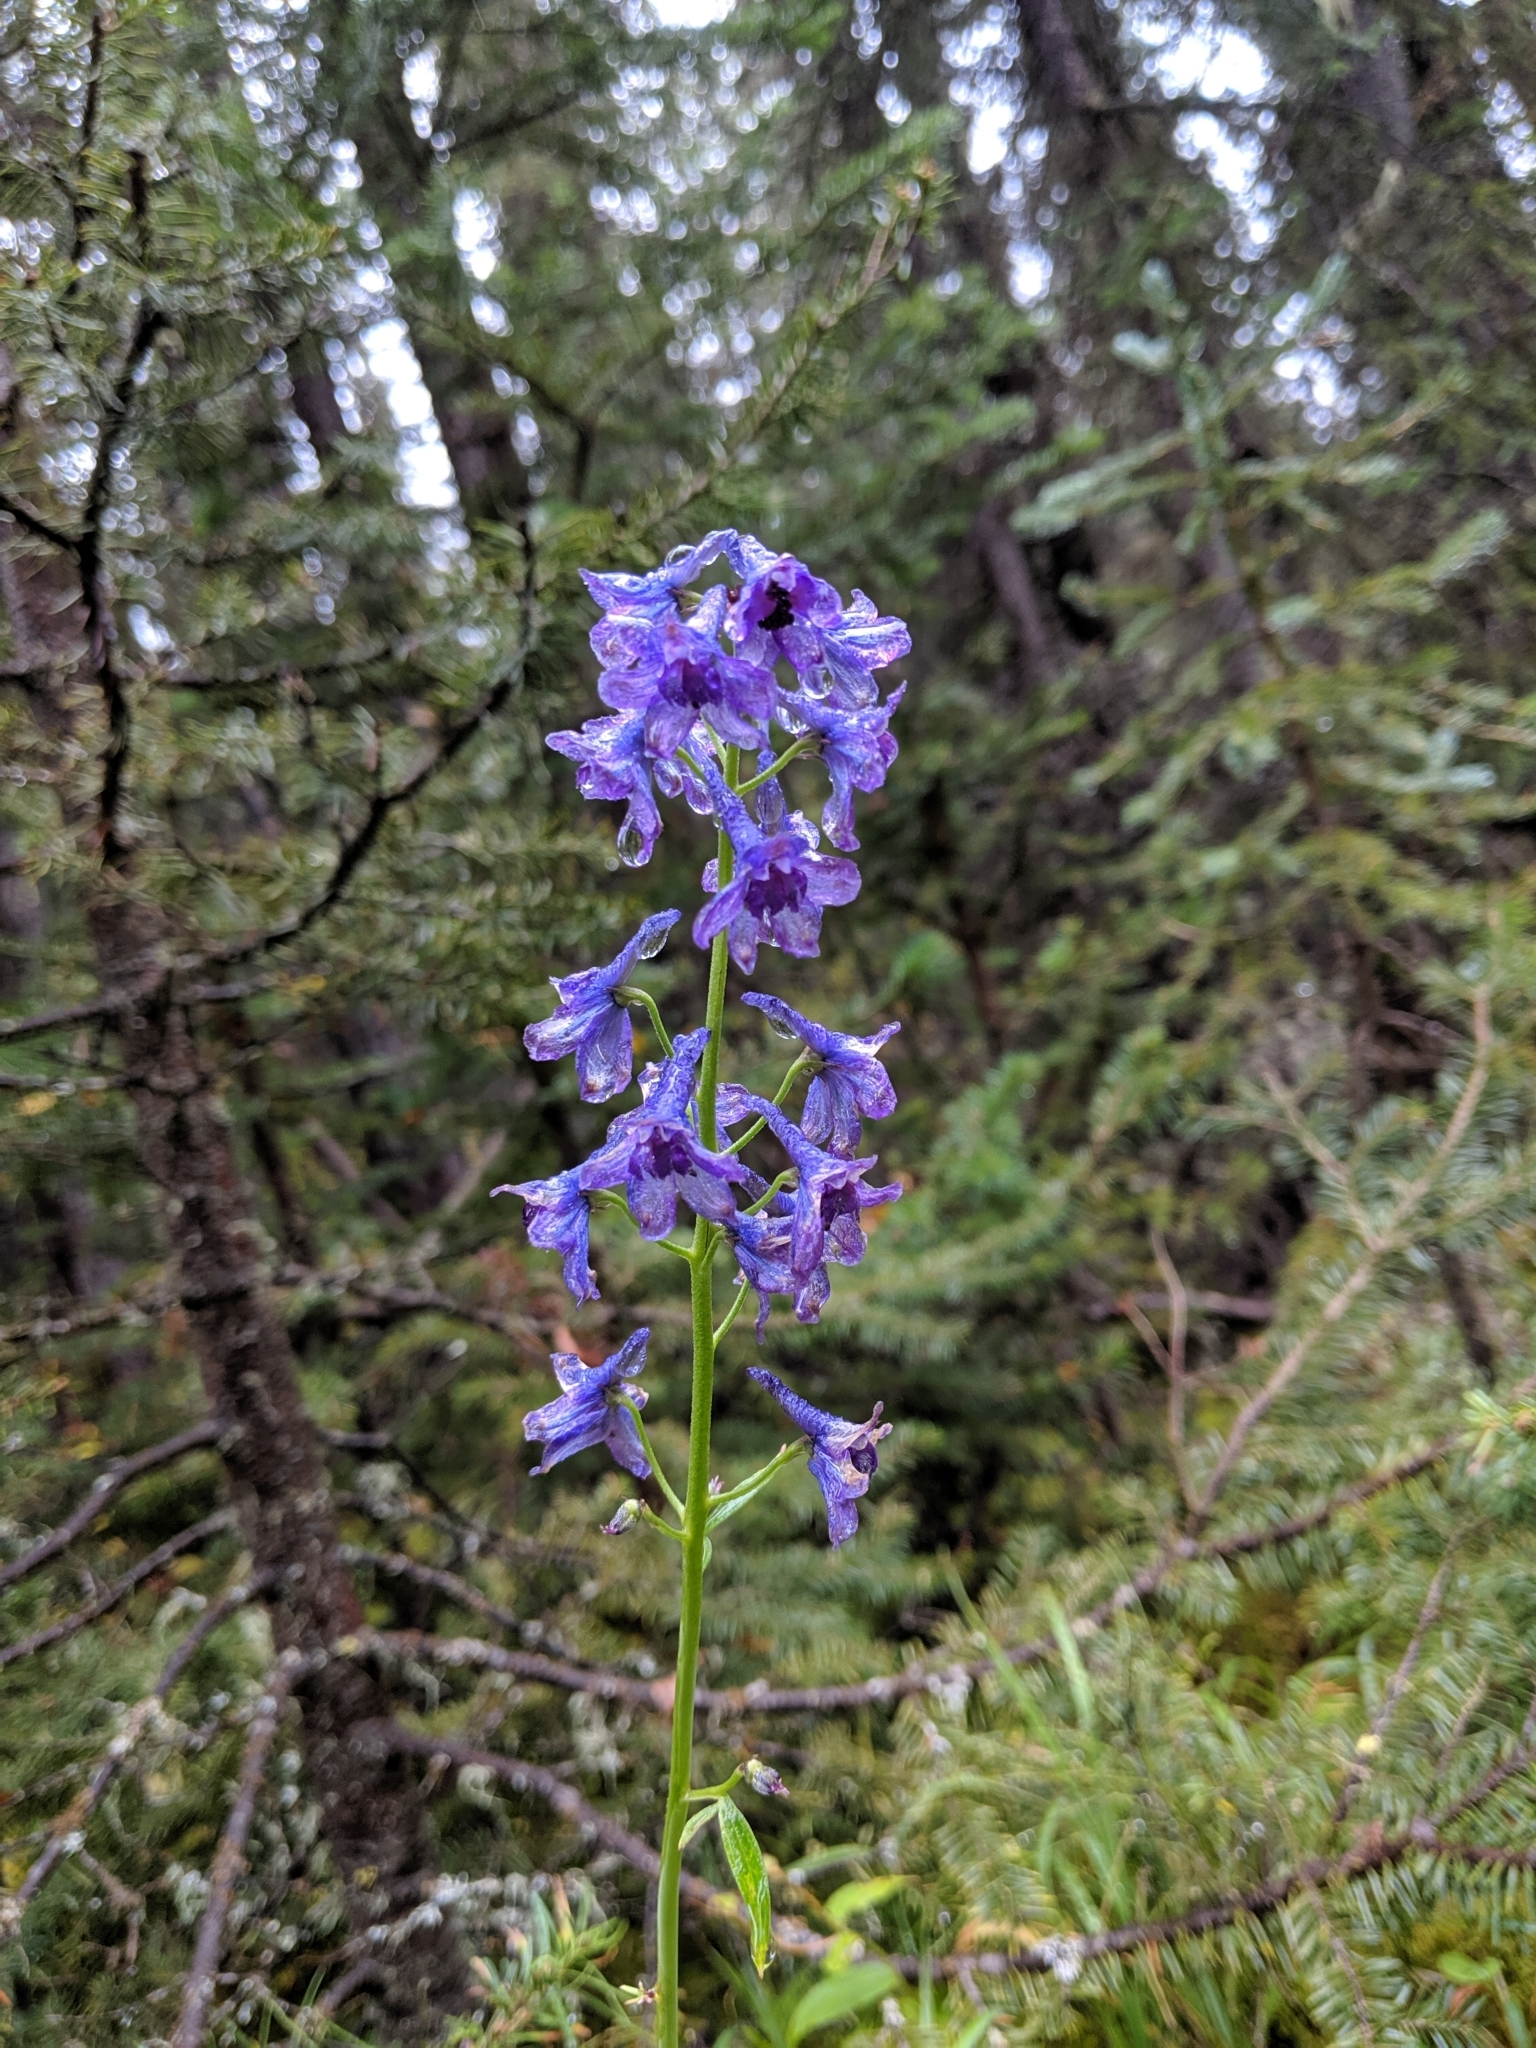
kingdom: Plantae
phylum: Tracheophyta
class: Magnoliopsida
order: Ranunculales
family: Ranunculaceae
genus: Delphinium
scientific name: Delphinium glaucum
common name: Brown's larkspur
